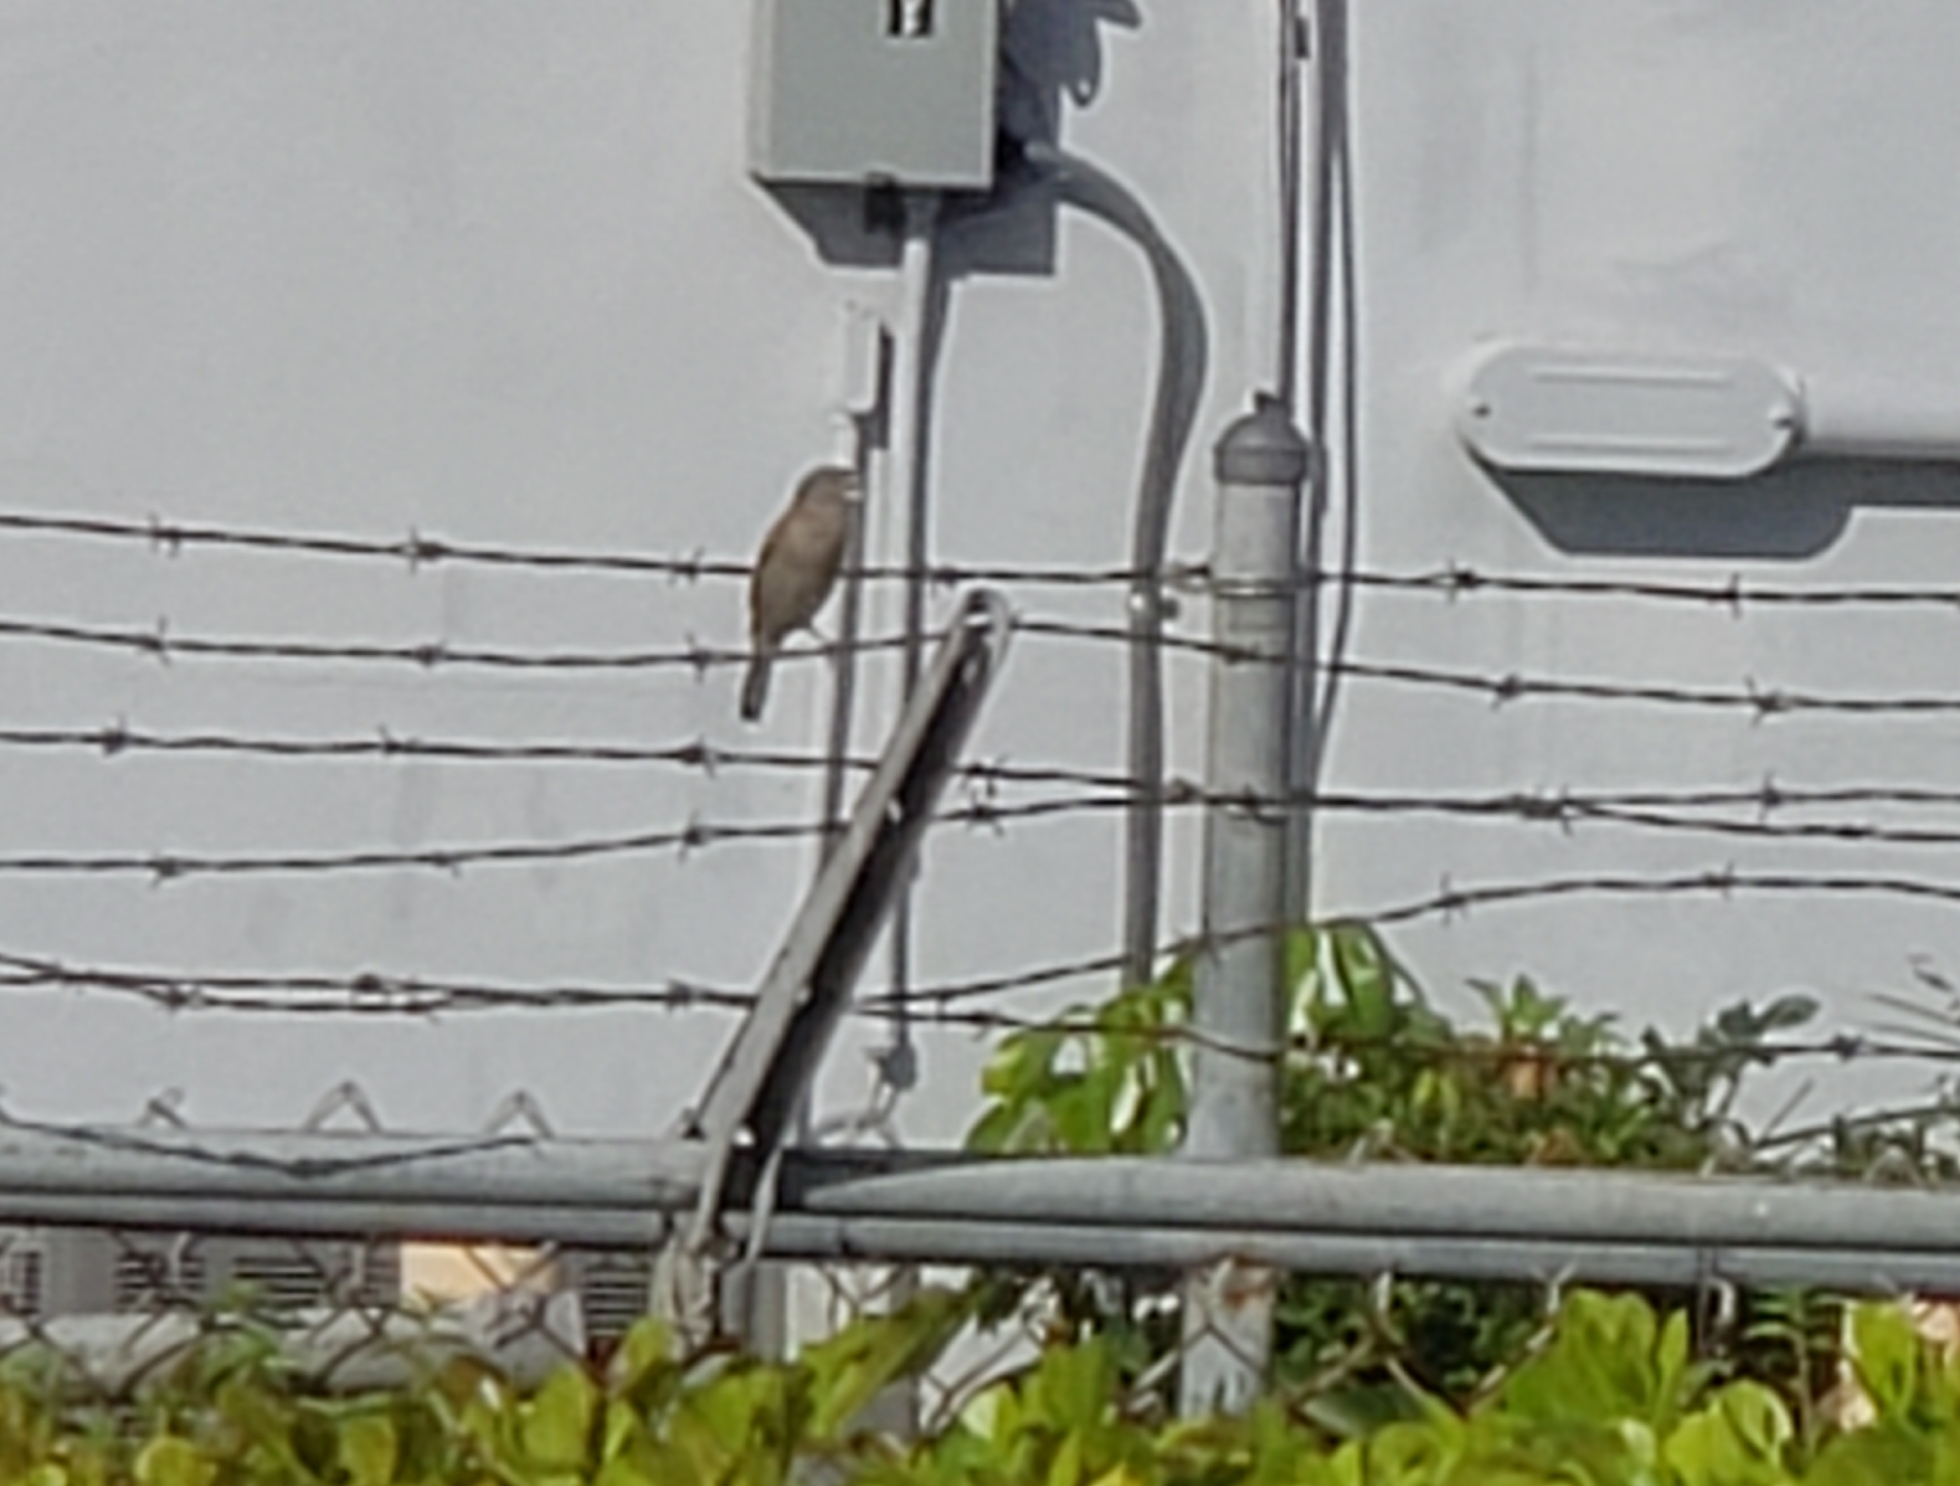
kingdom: Animalia
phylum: Chordata
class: Aves
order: Passeriformes
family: Passeridae
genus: Passer
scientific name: Passer domesticus
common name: House sparrow
